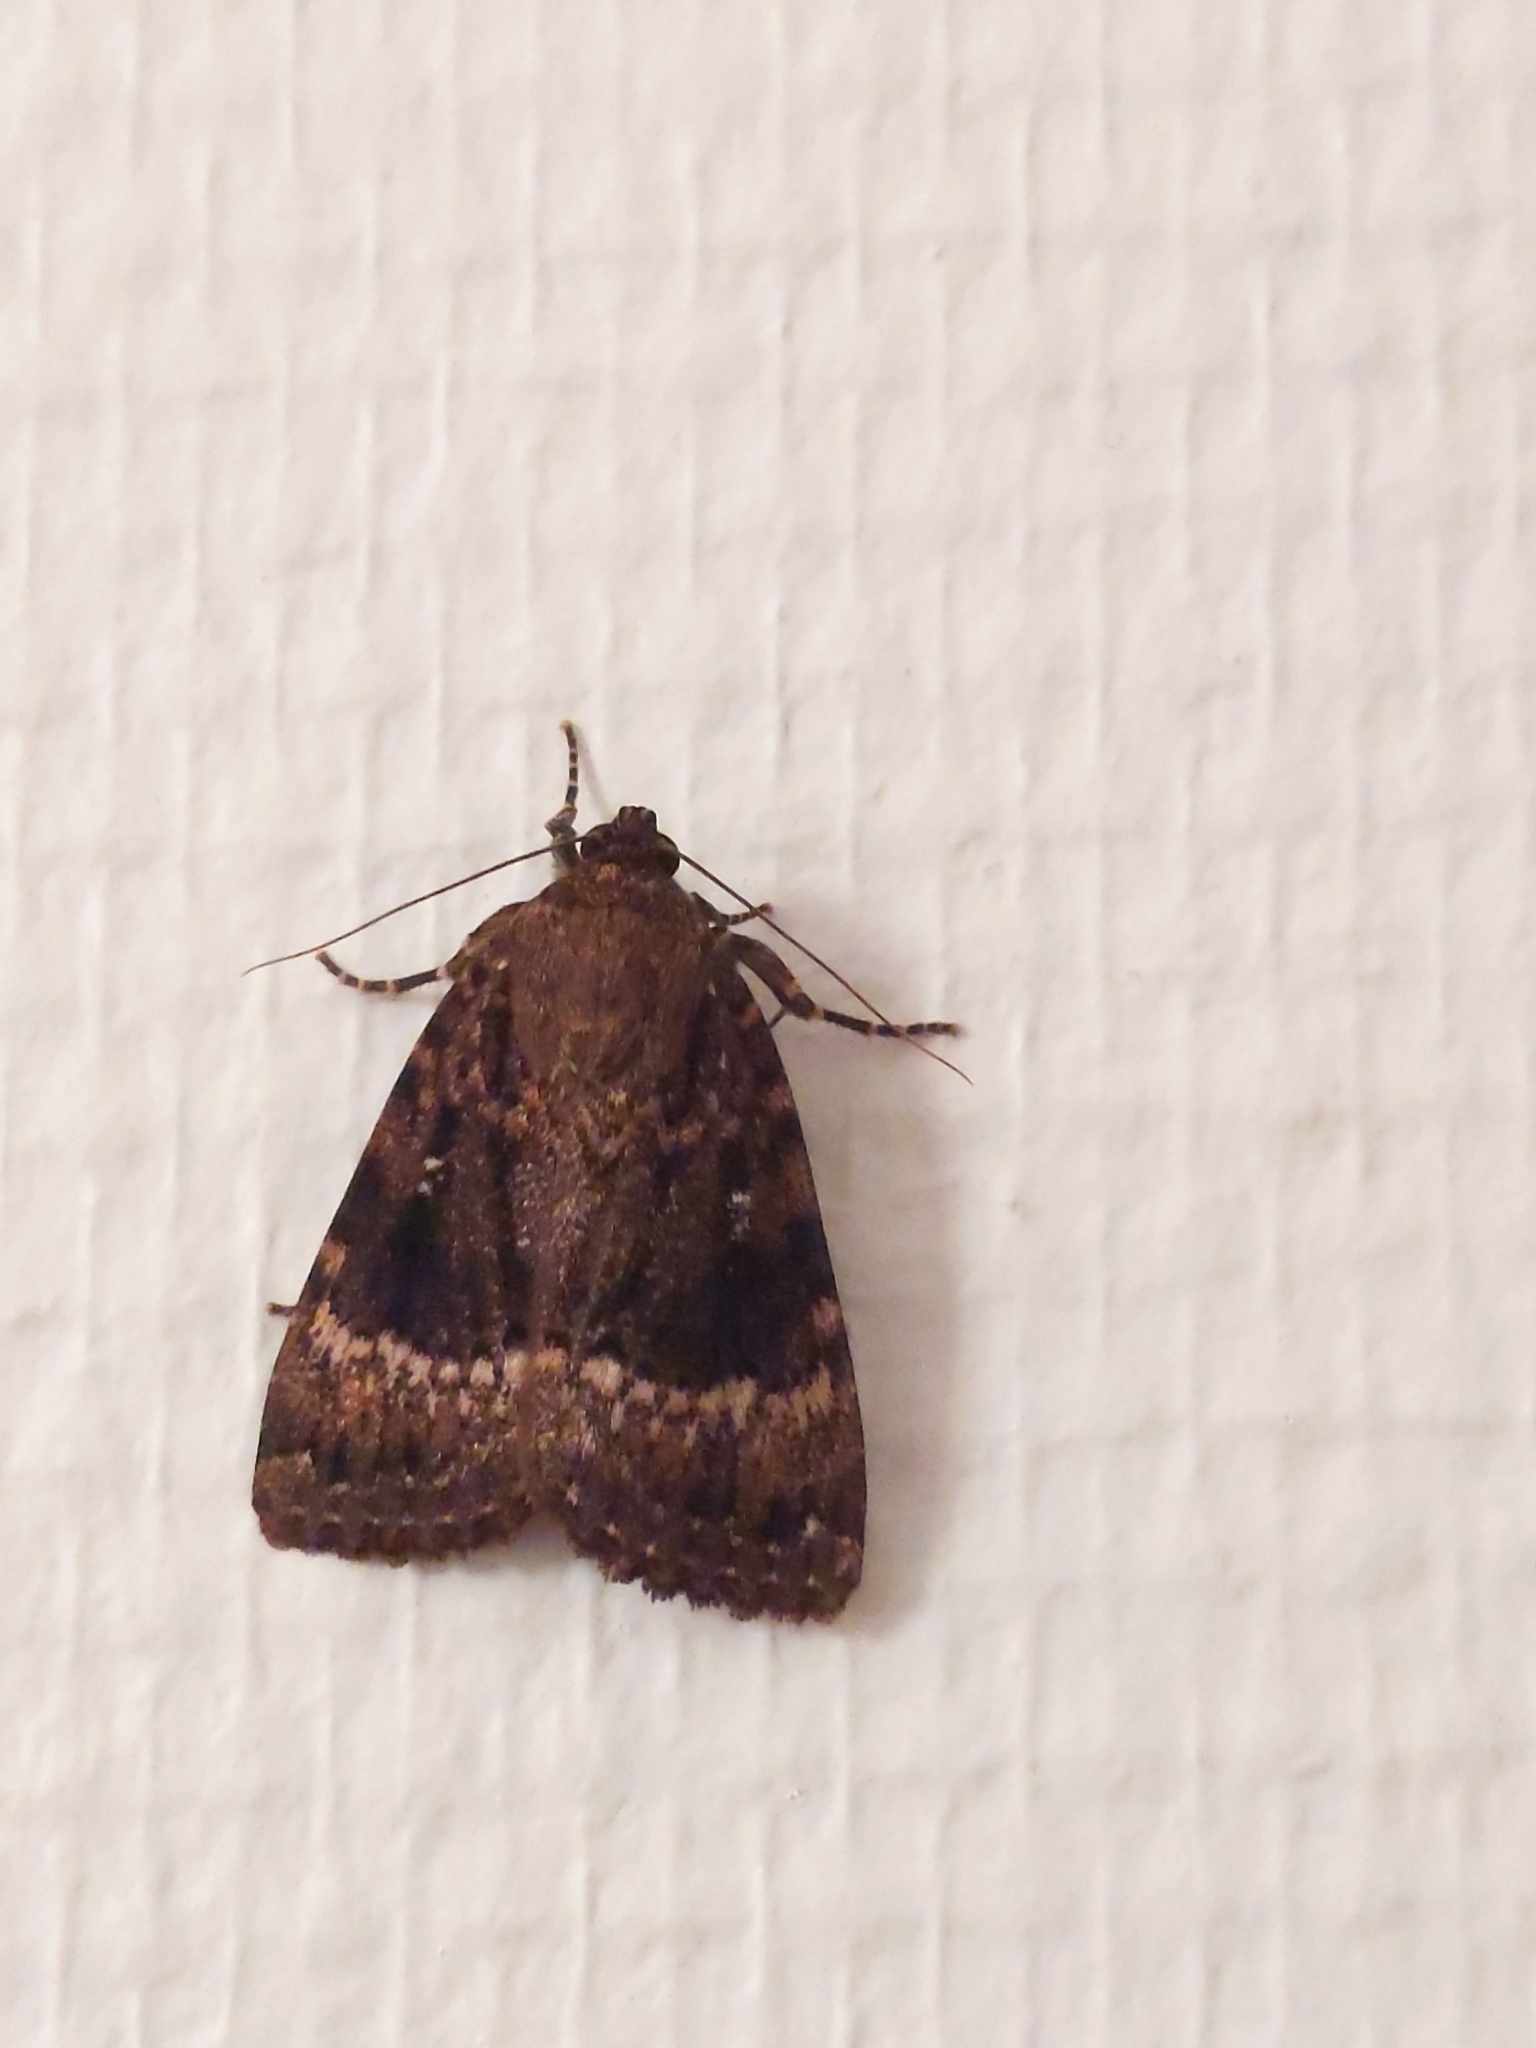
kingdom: Animalia
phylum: Arthropoda
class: Insecta
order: Lepidoptera
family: Noctuidae
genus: Amphipyra
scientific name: Amphipyra pyramidea
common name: Copper underwing
